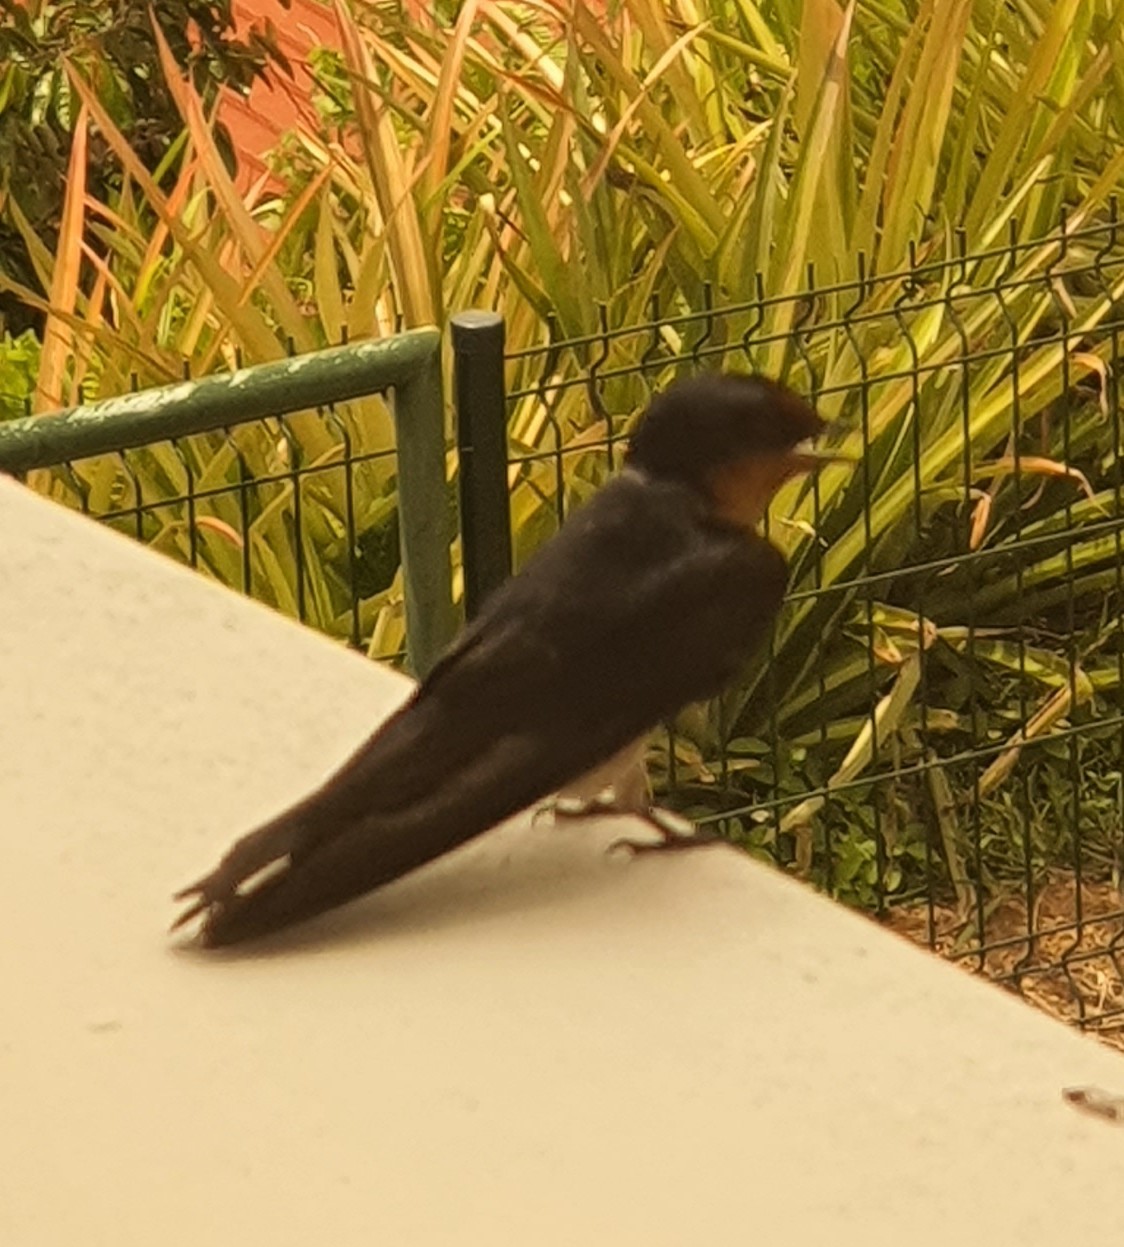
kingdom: Animalia
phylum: Chordata
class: Aves
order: Passeriformes
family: Hirundinidae
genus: Hirundo
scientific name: Hirundo tahitica
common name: Pacific swallow
